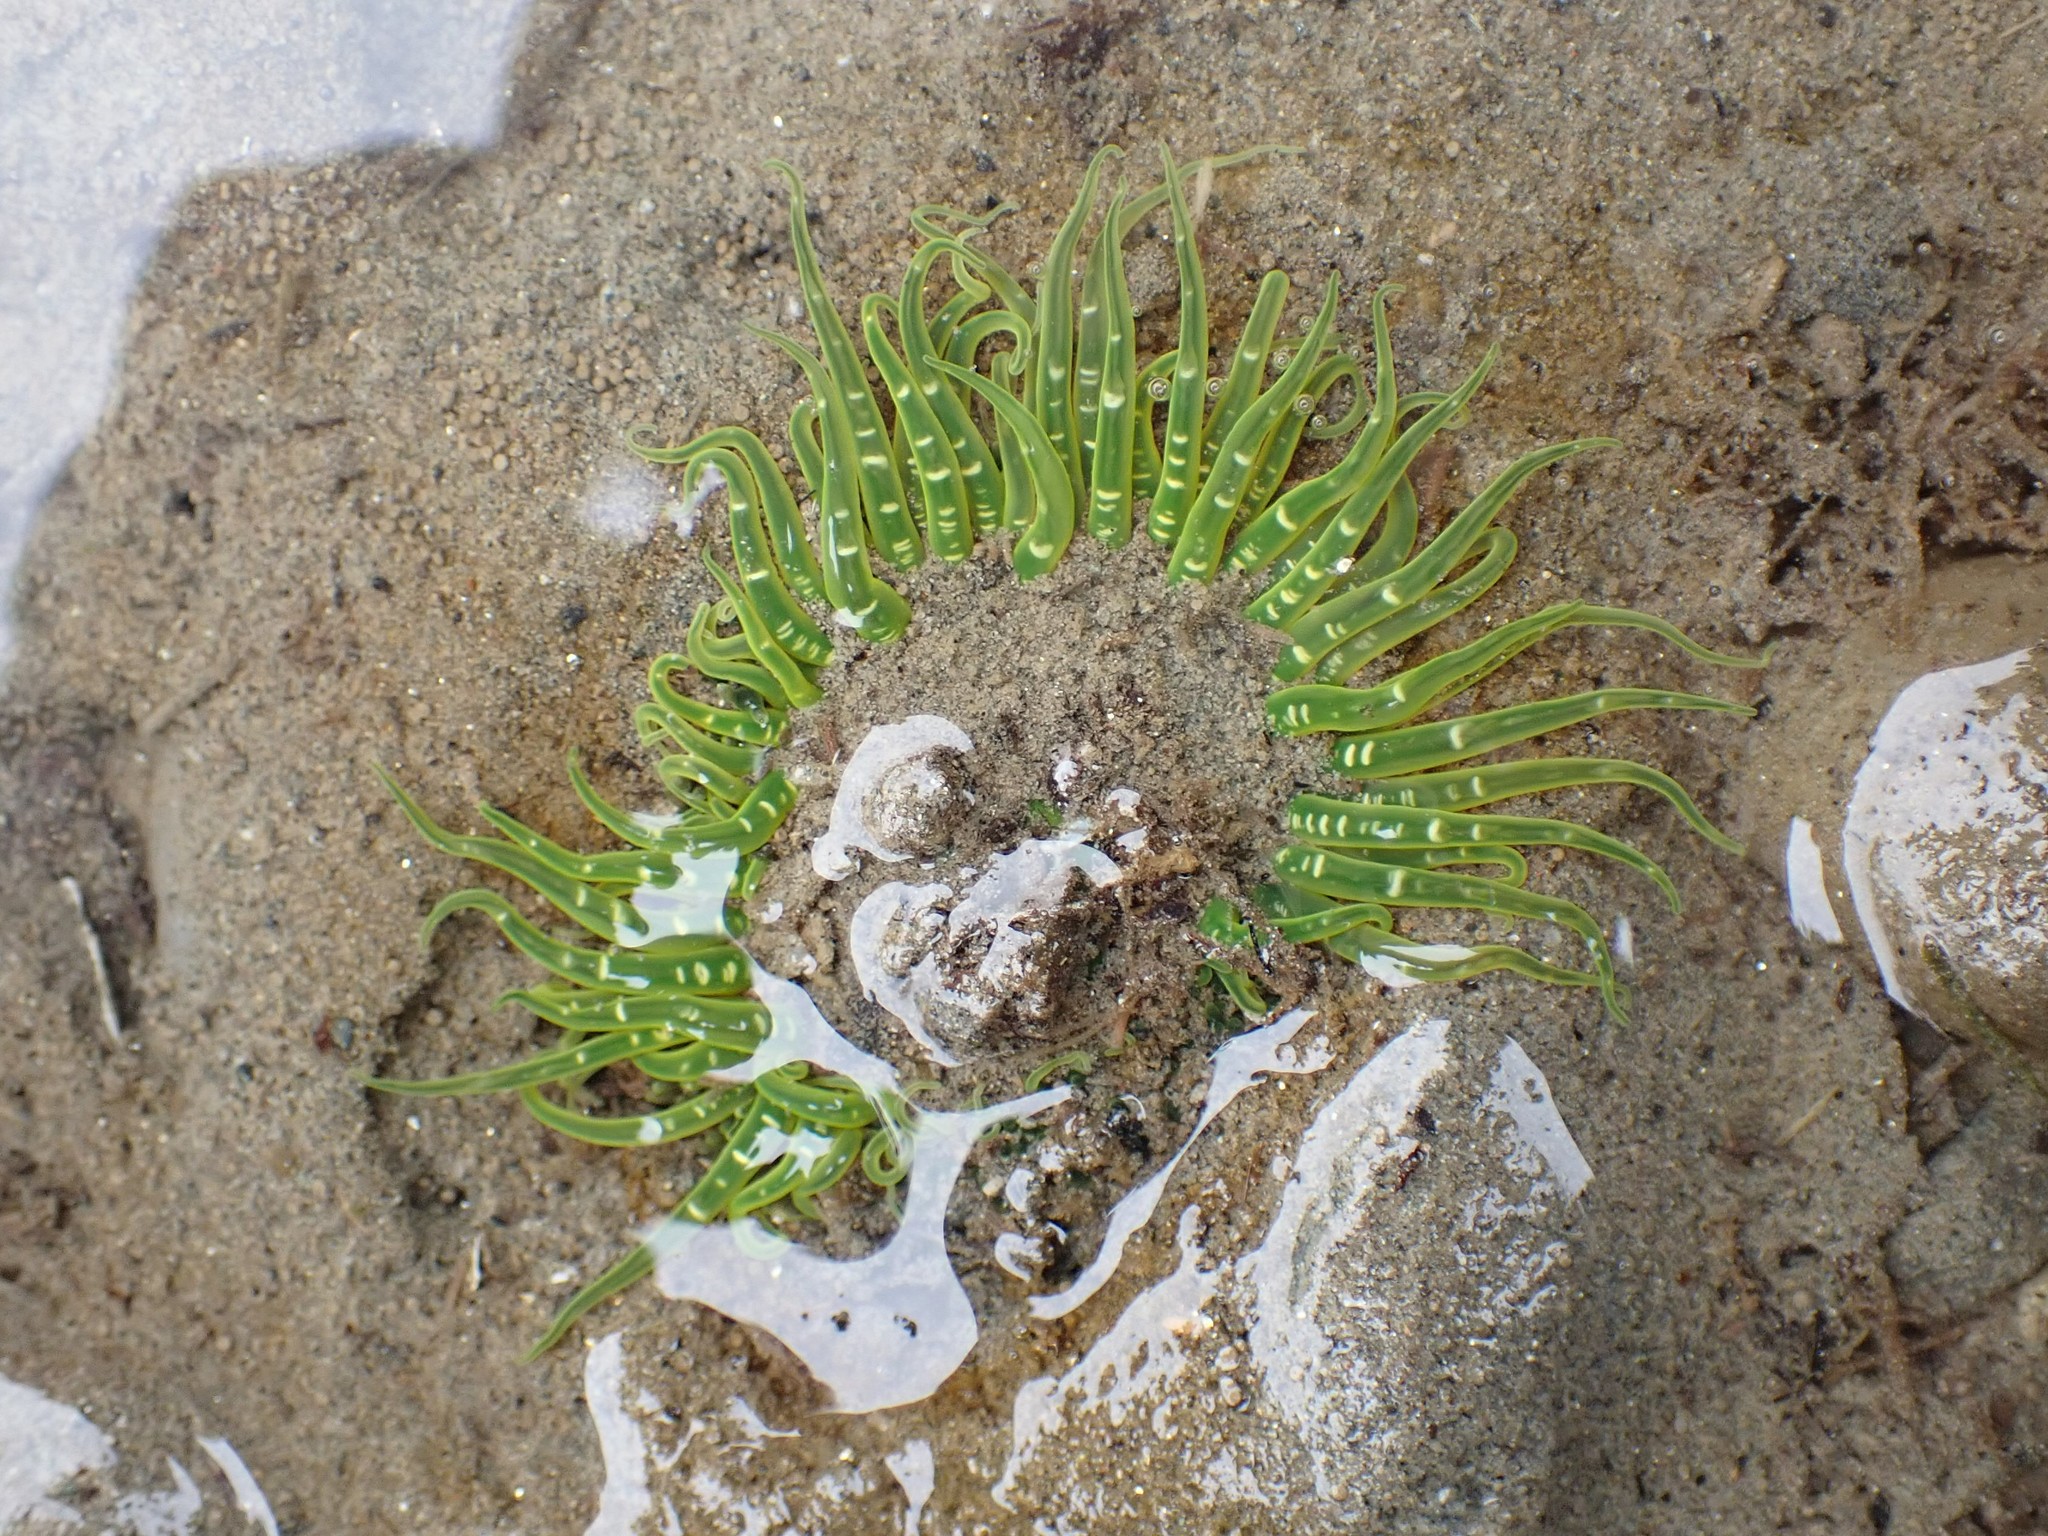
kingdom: Animalia
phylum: Cnidaria
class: Anthozoa
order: Actiniaria
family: Actiniidae
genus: Anthopleura
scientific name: Anthopleura artemisia
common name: Buried sea anemone
